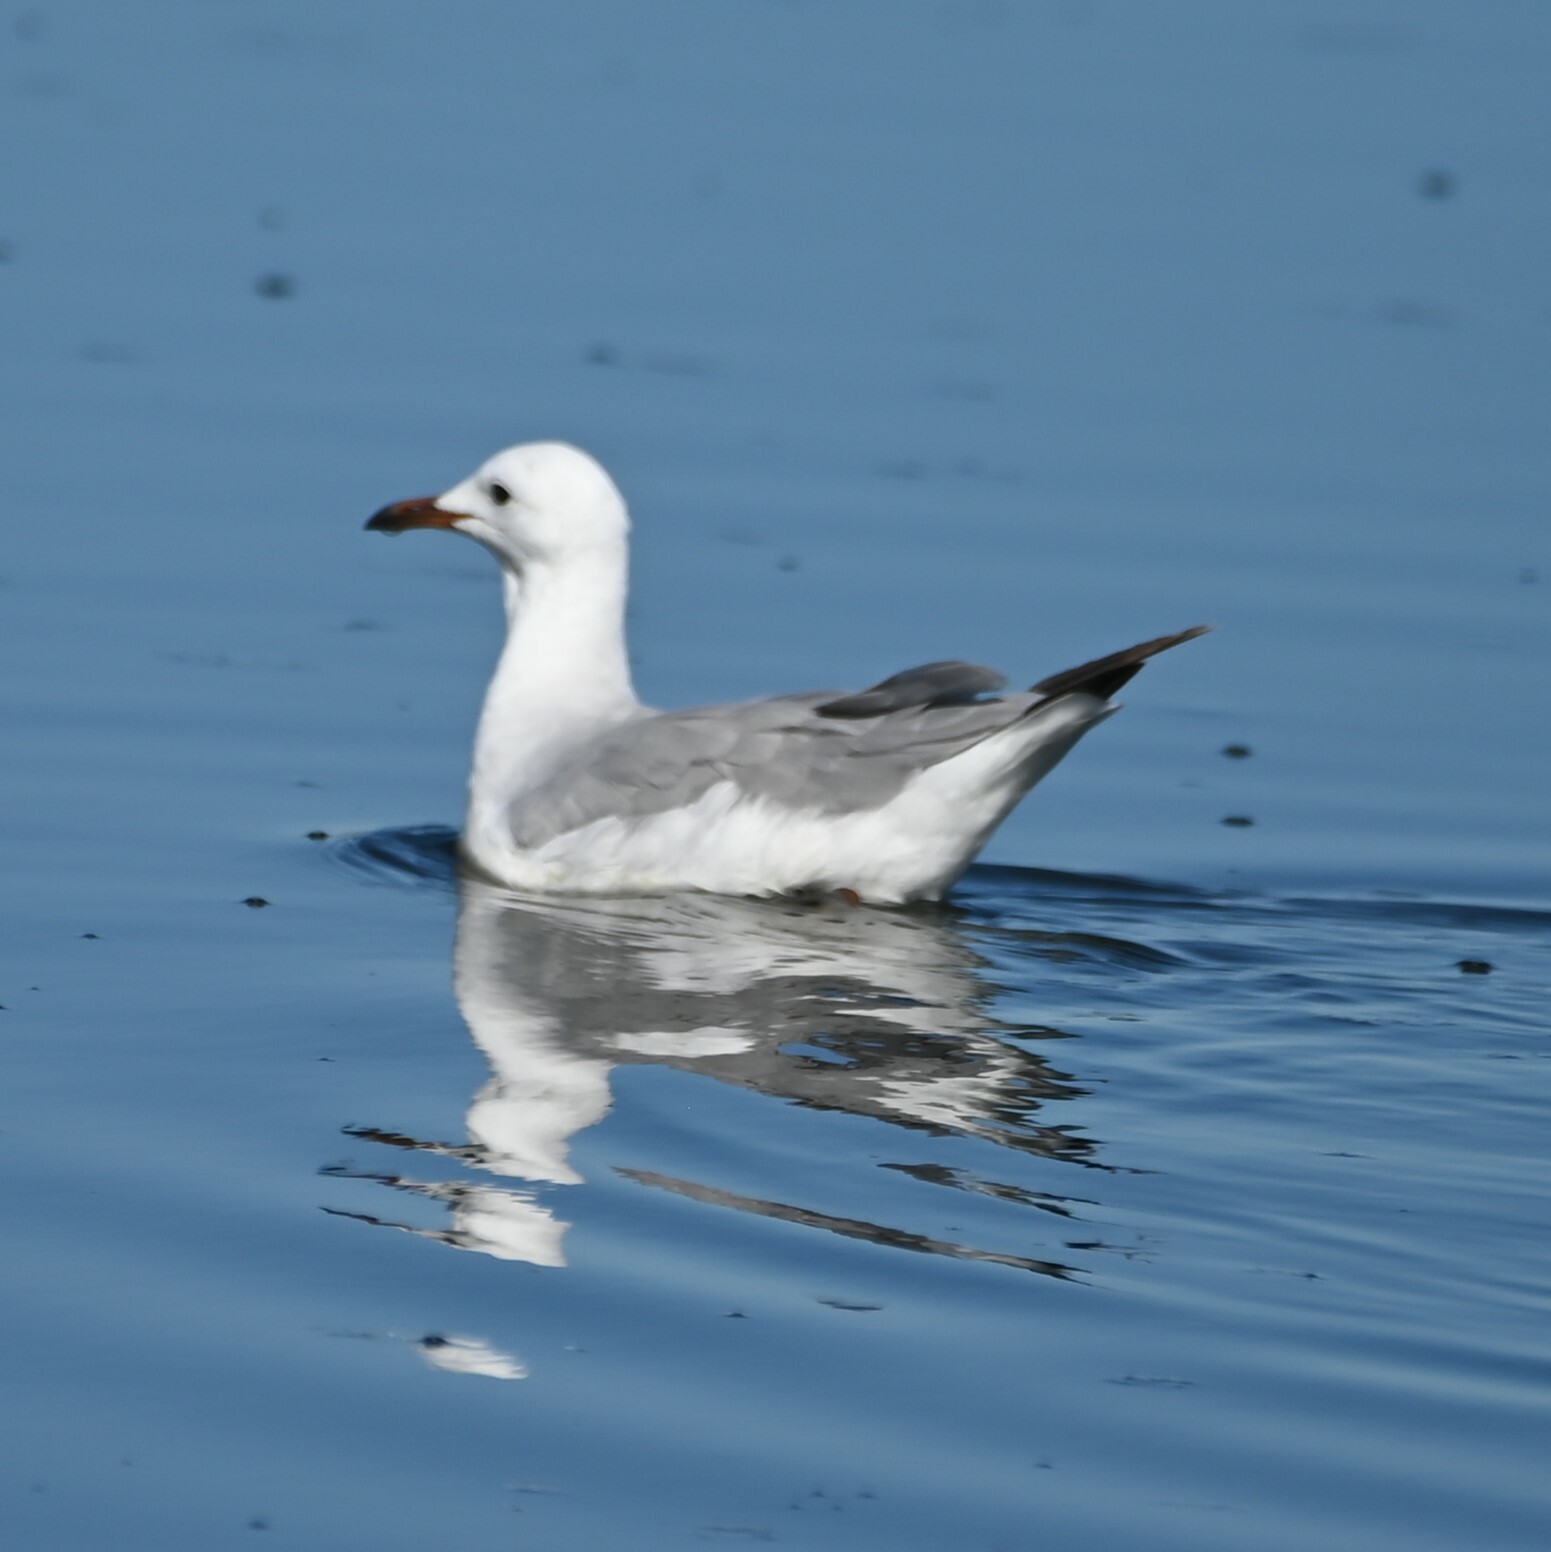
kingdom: Animalia
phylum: Chordata
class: Aves
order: Charadriiformes
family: Laridae
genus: Chroicocephalus
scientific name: Chroicocephalus hartlaubii
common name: Hartlaub's gull
